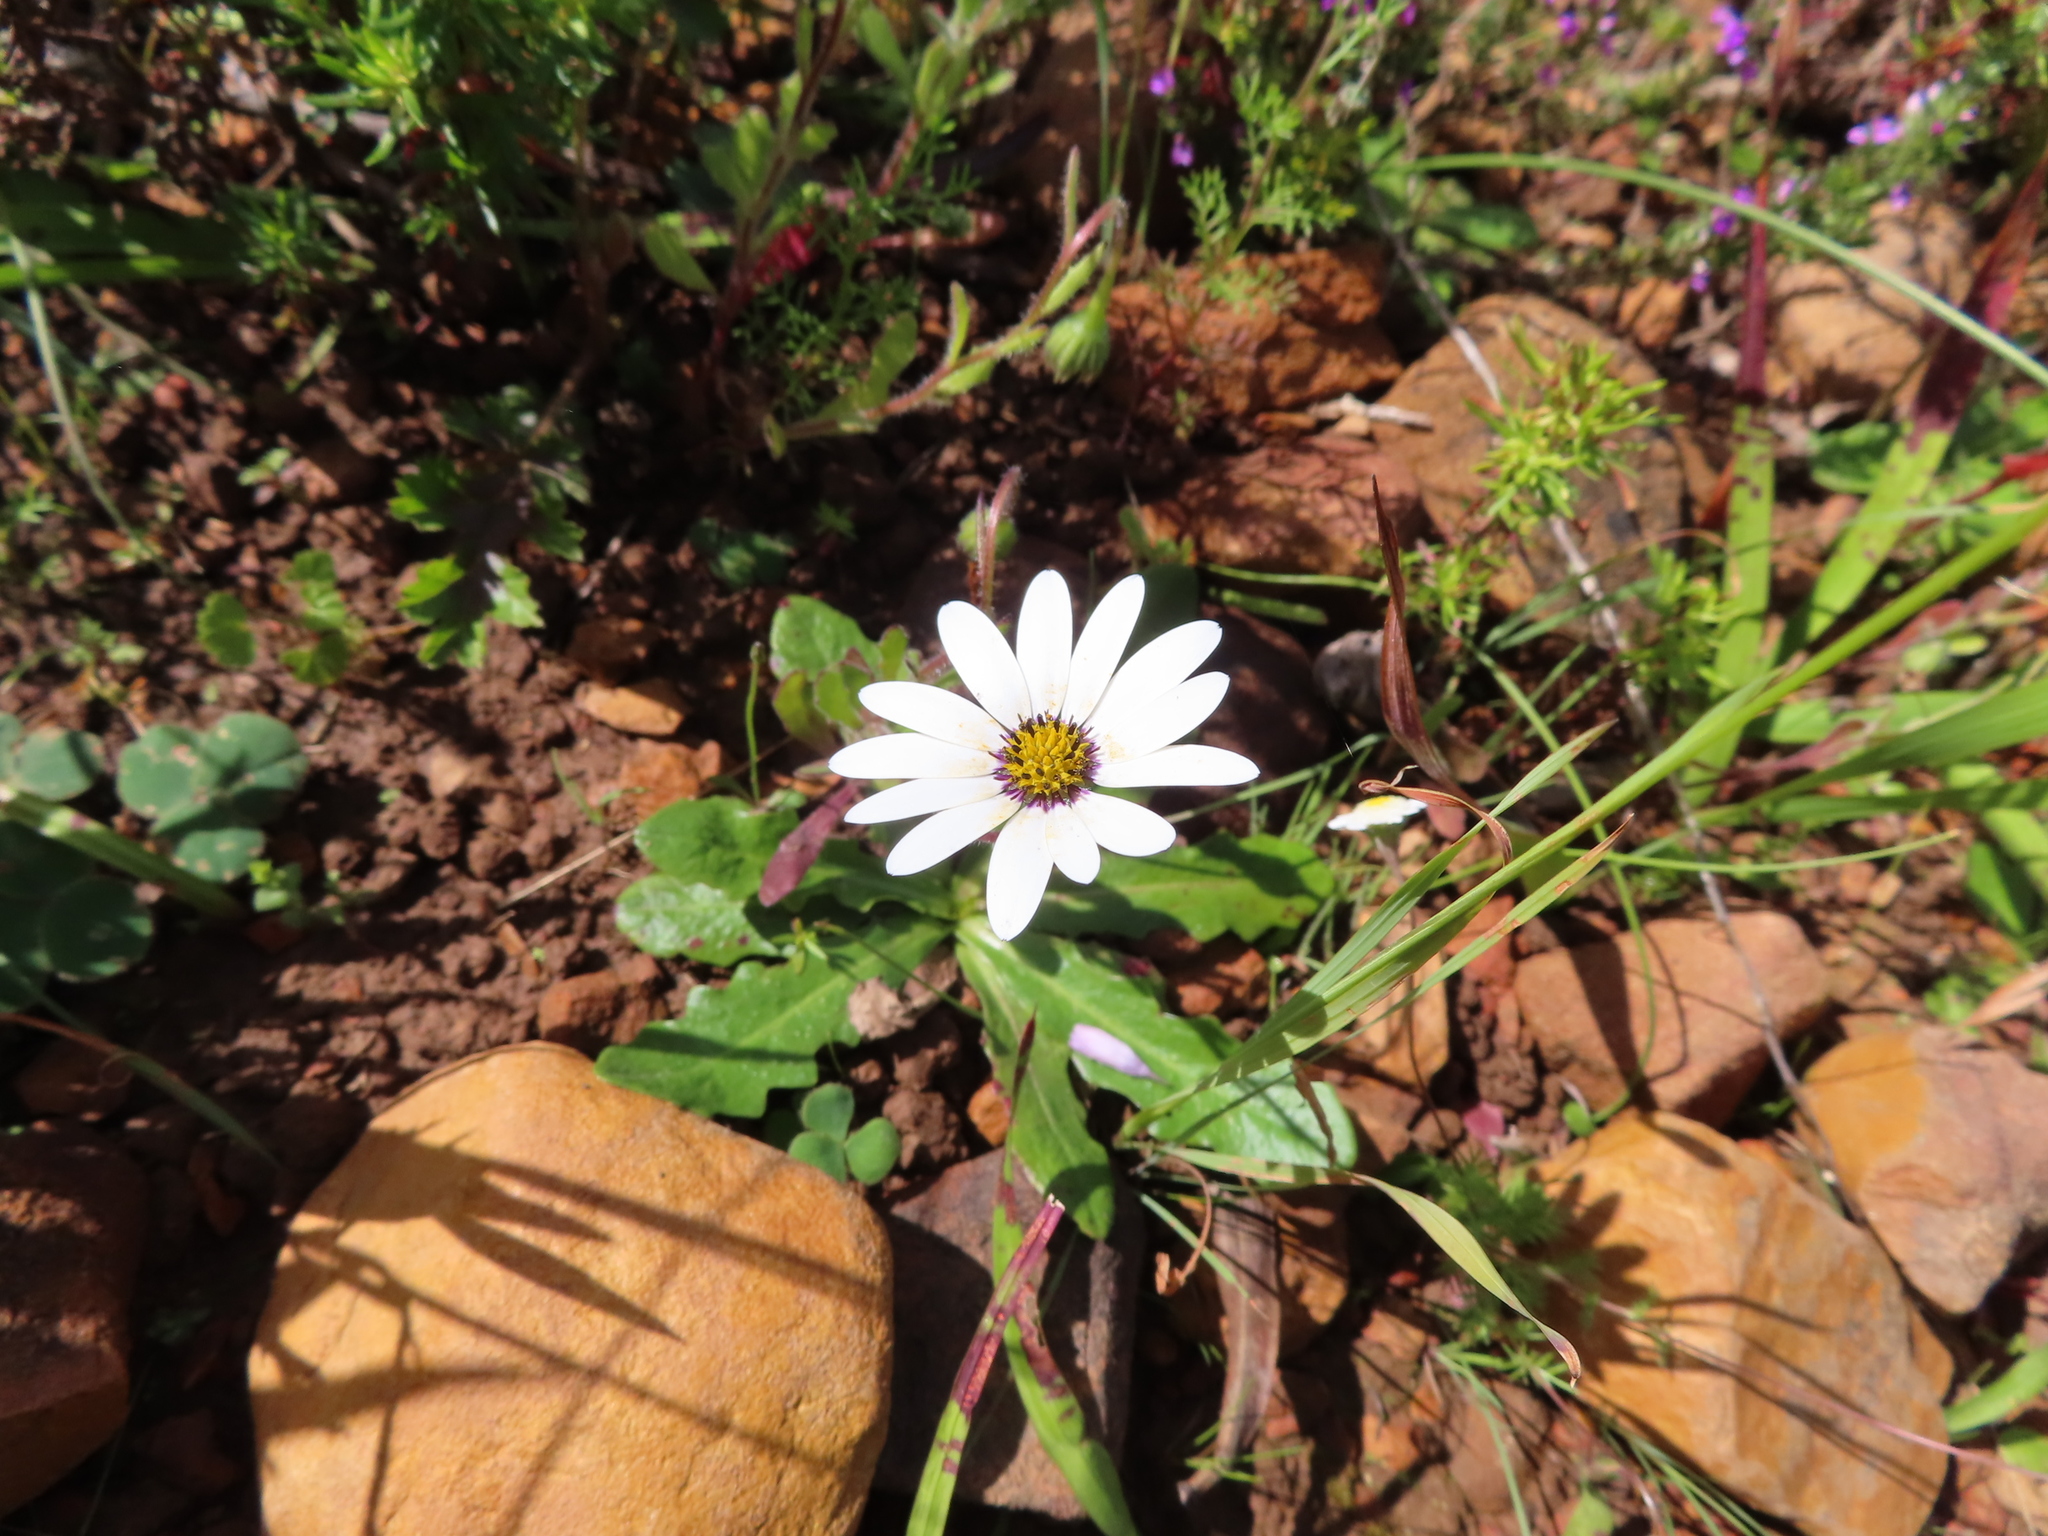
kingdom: Plantae
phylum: Tracheophyta
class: Magnoliopsida
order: Asterales
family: Asteraceae
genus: Dimorphotheca
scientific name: Dimorphotheca pluvialis
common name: Weather prophet
